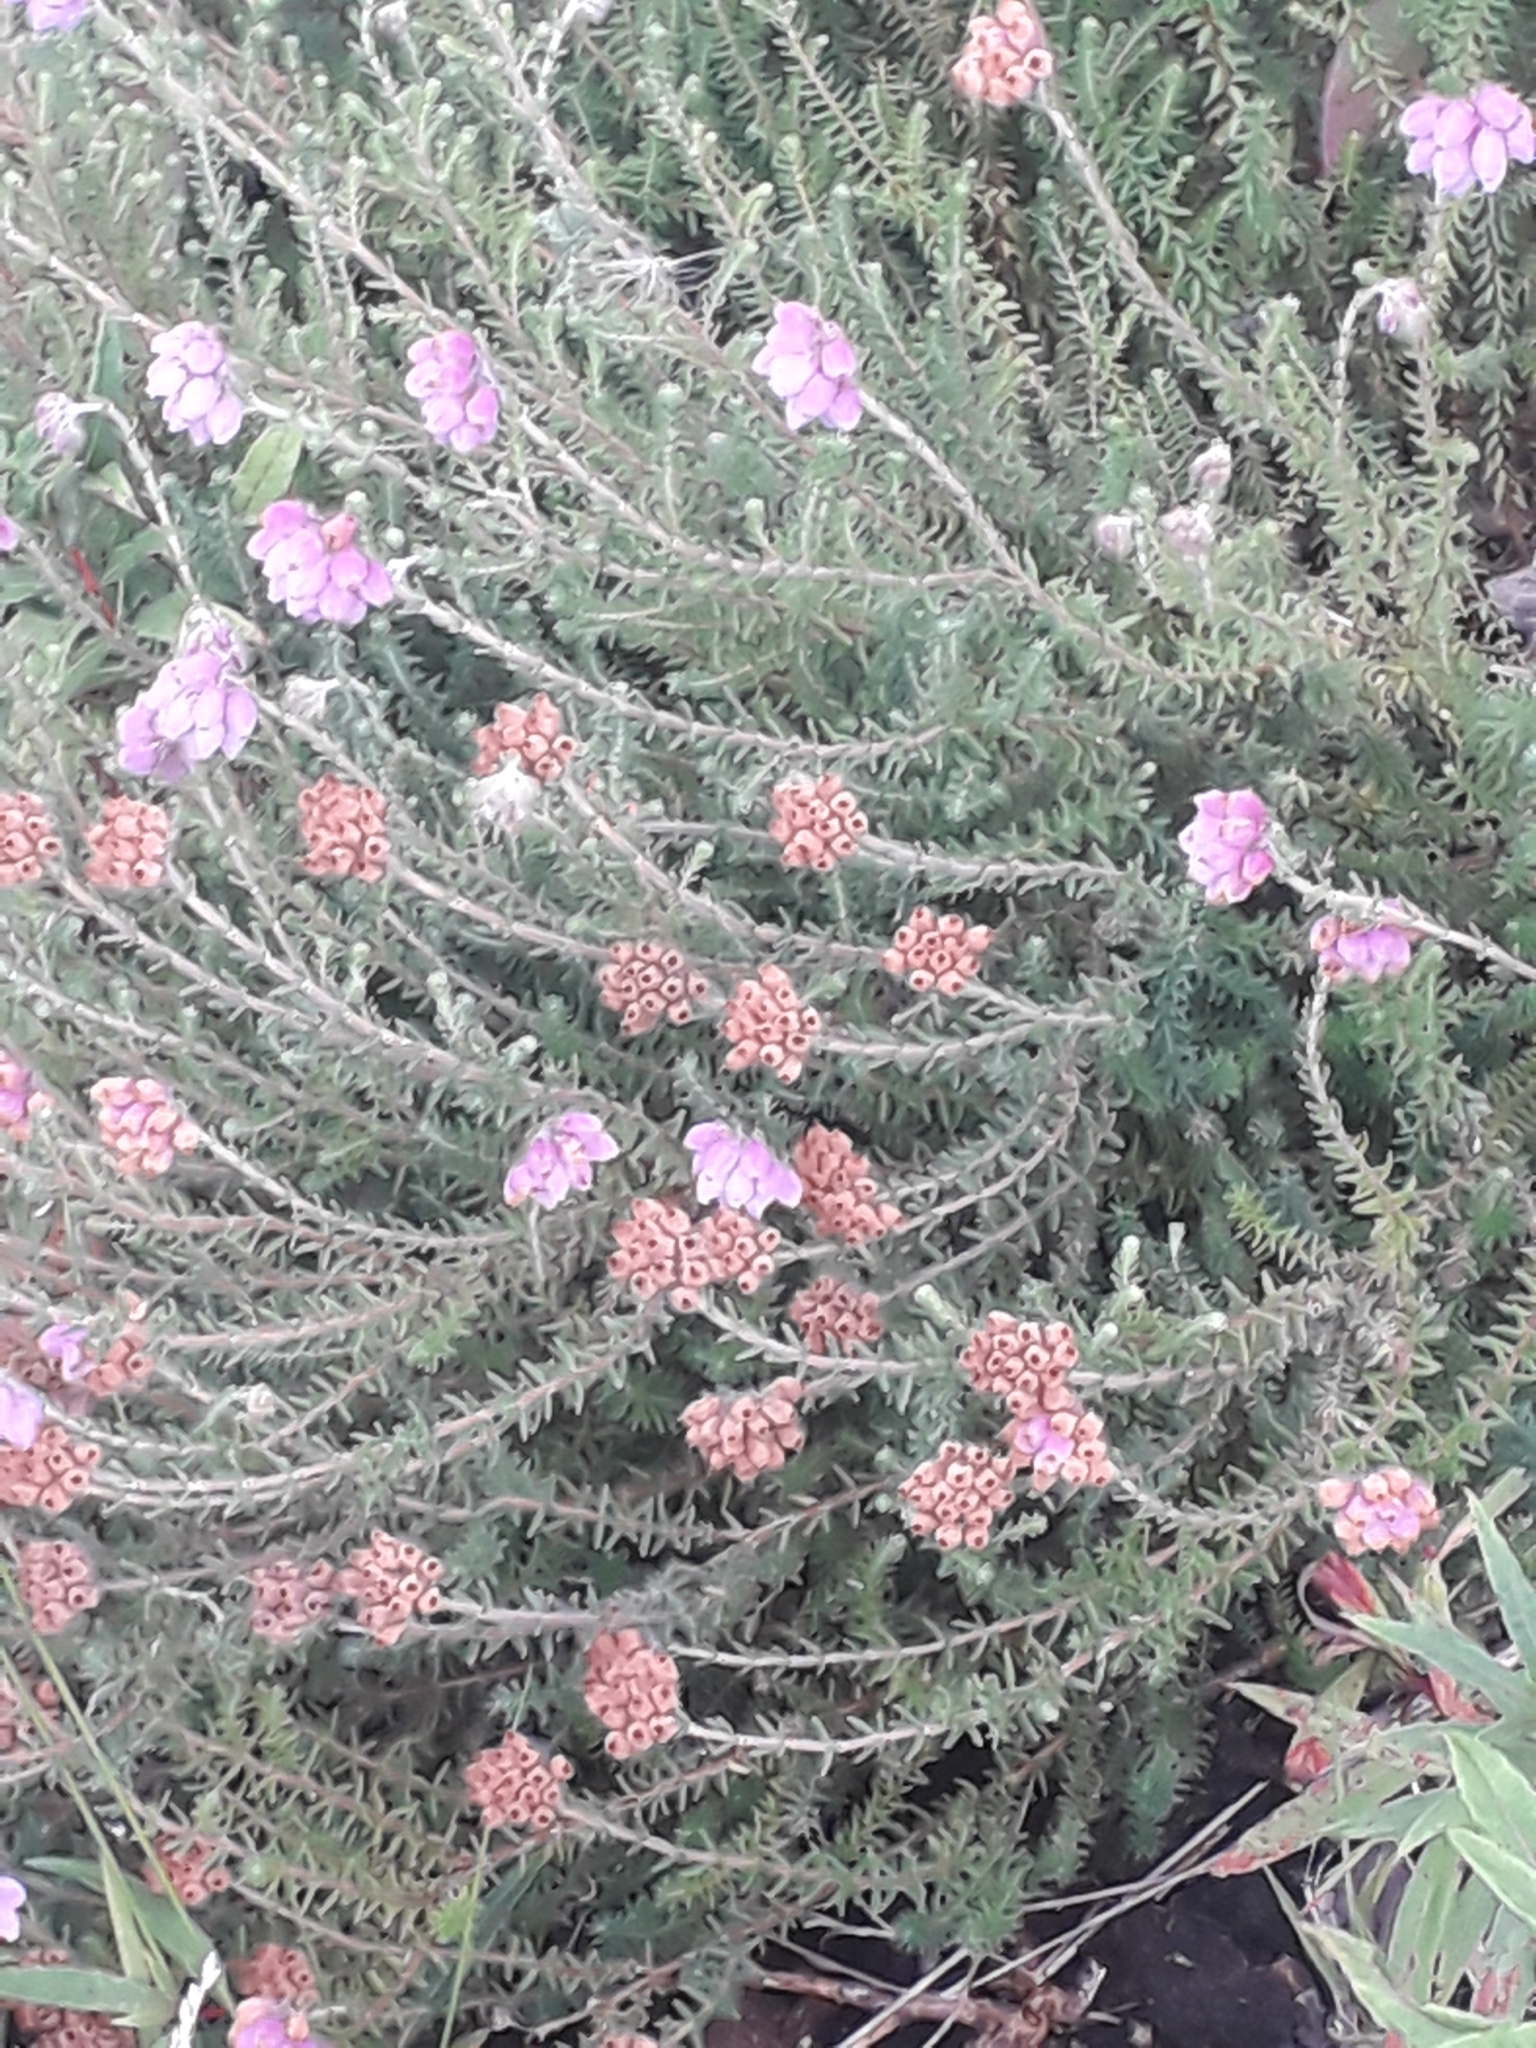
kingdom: Plantae
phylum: Tracheophyta
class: Magnoliopsida
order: Ericales
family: Ericaceae
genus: Erica
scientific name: Erica tetralix
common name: Cross-leaved heath
